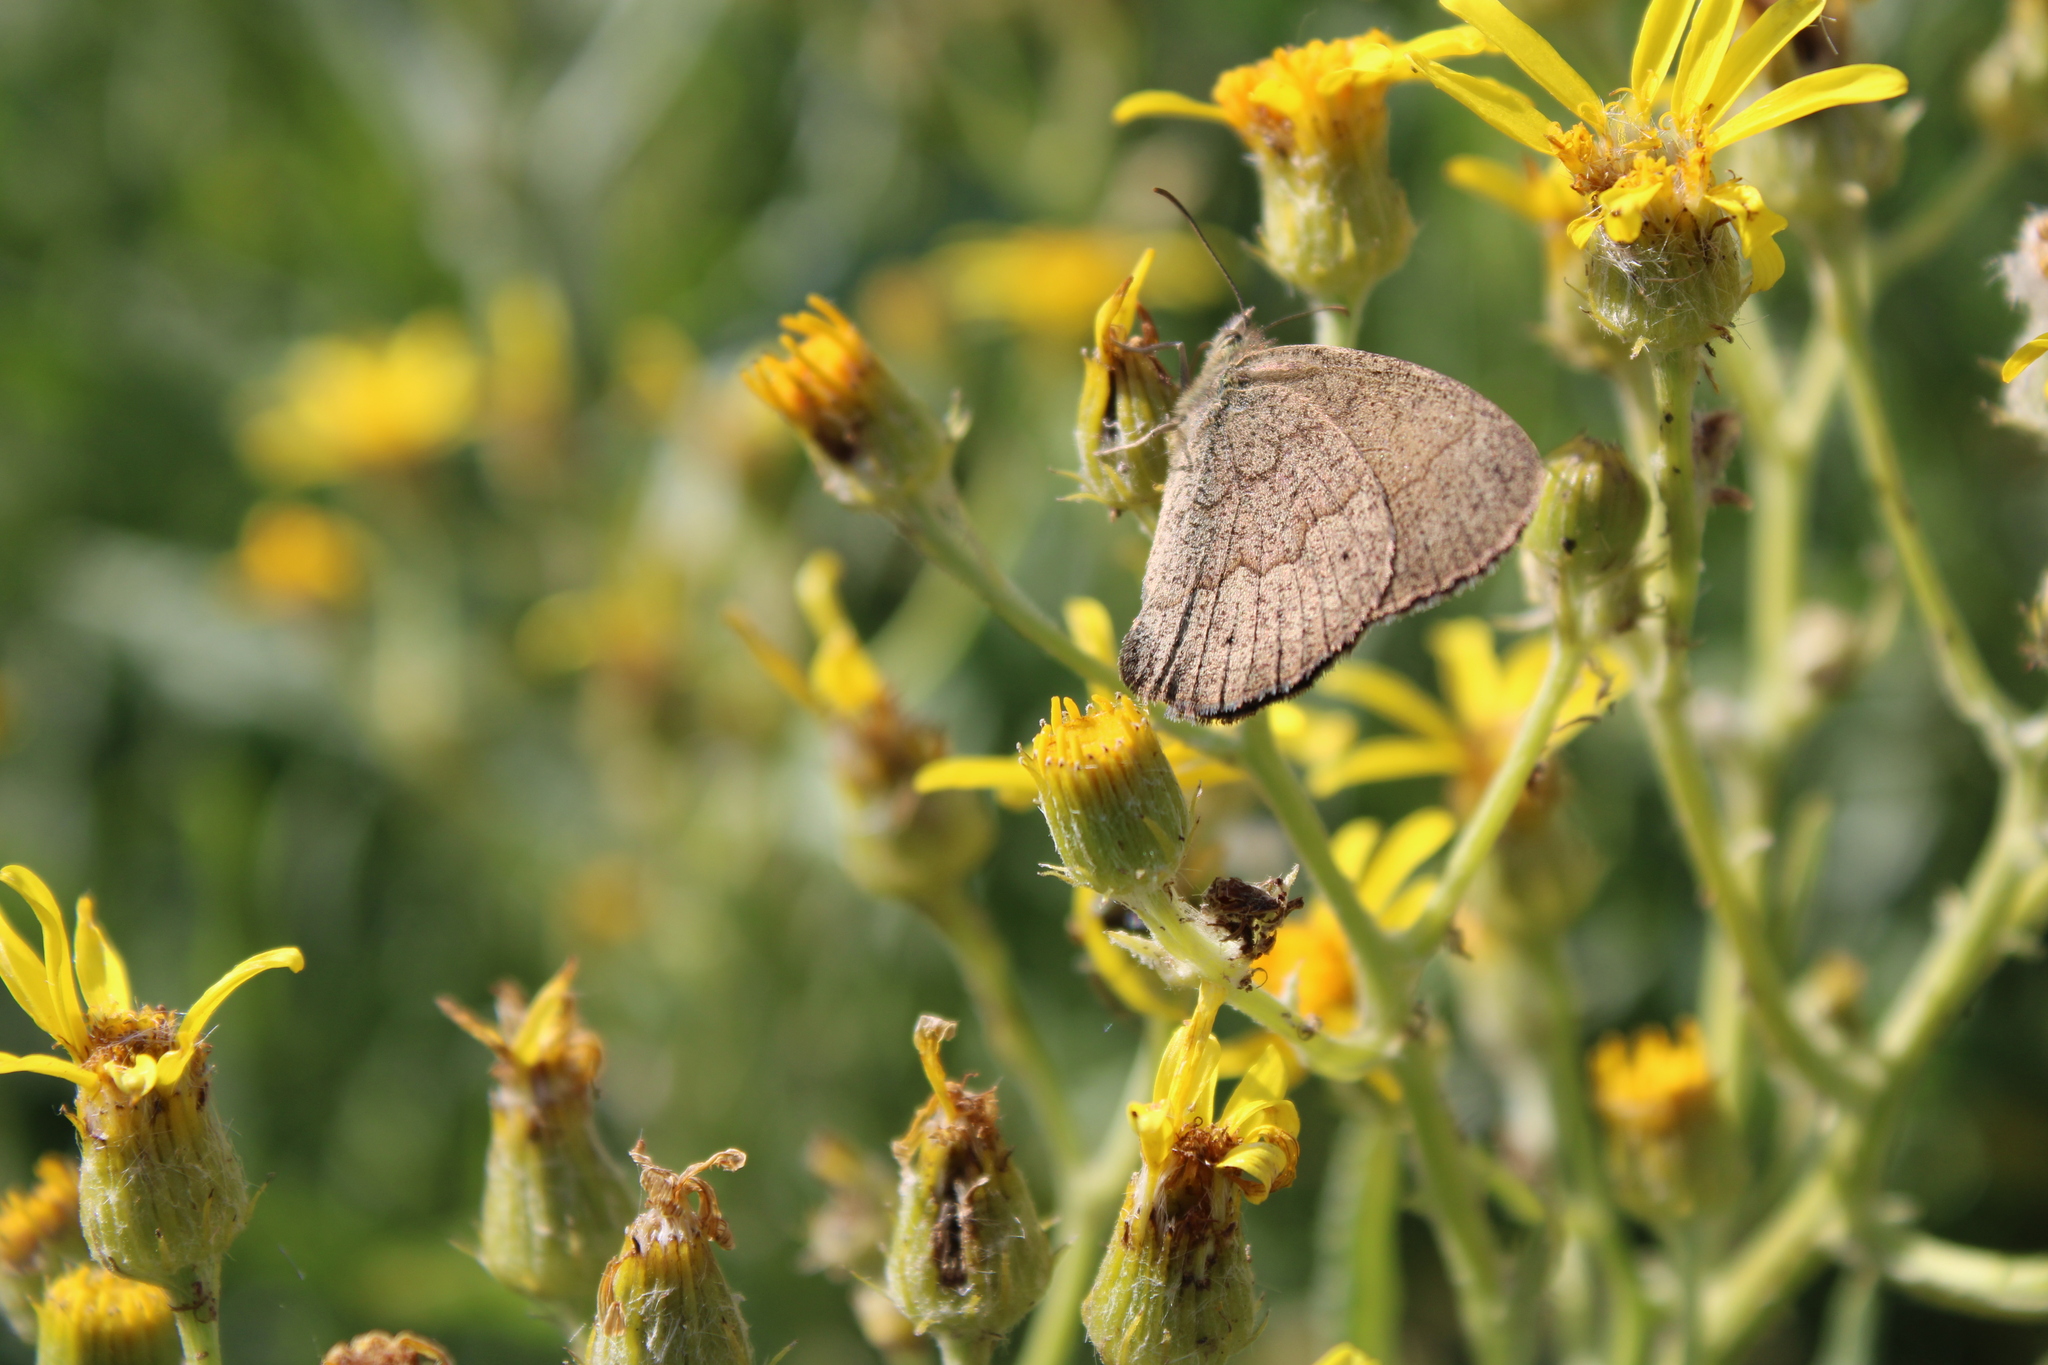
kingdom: Animalia
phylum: Arthropoda
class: Insecta
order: Lepidoptera
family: Nymphalidae
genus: Yphthimoides
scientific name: Yphthimoides celmis
